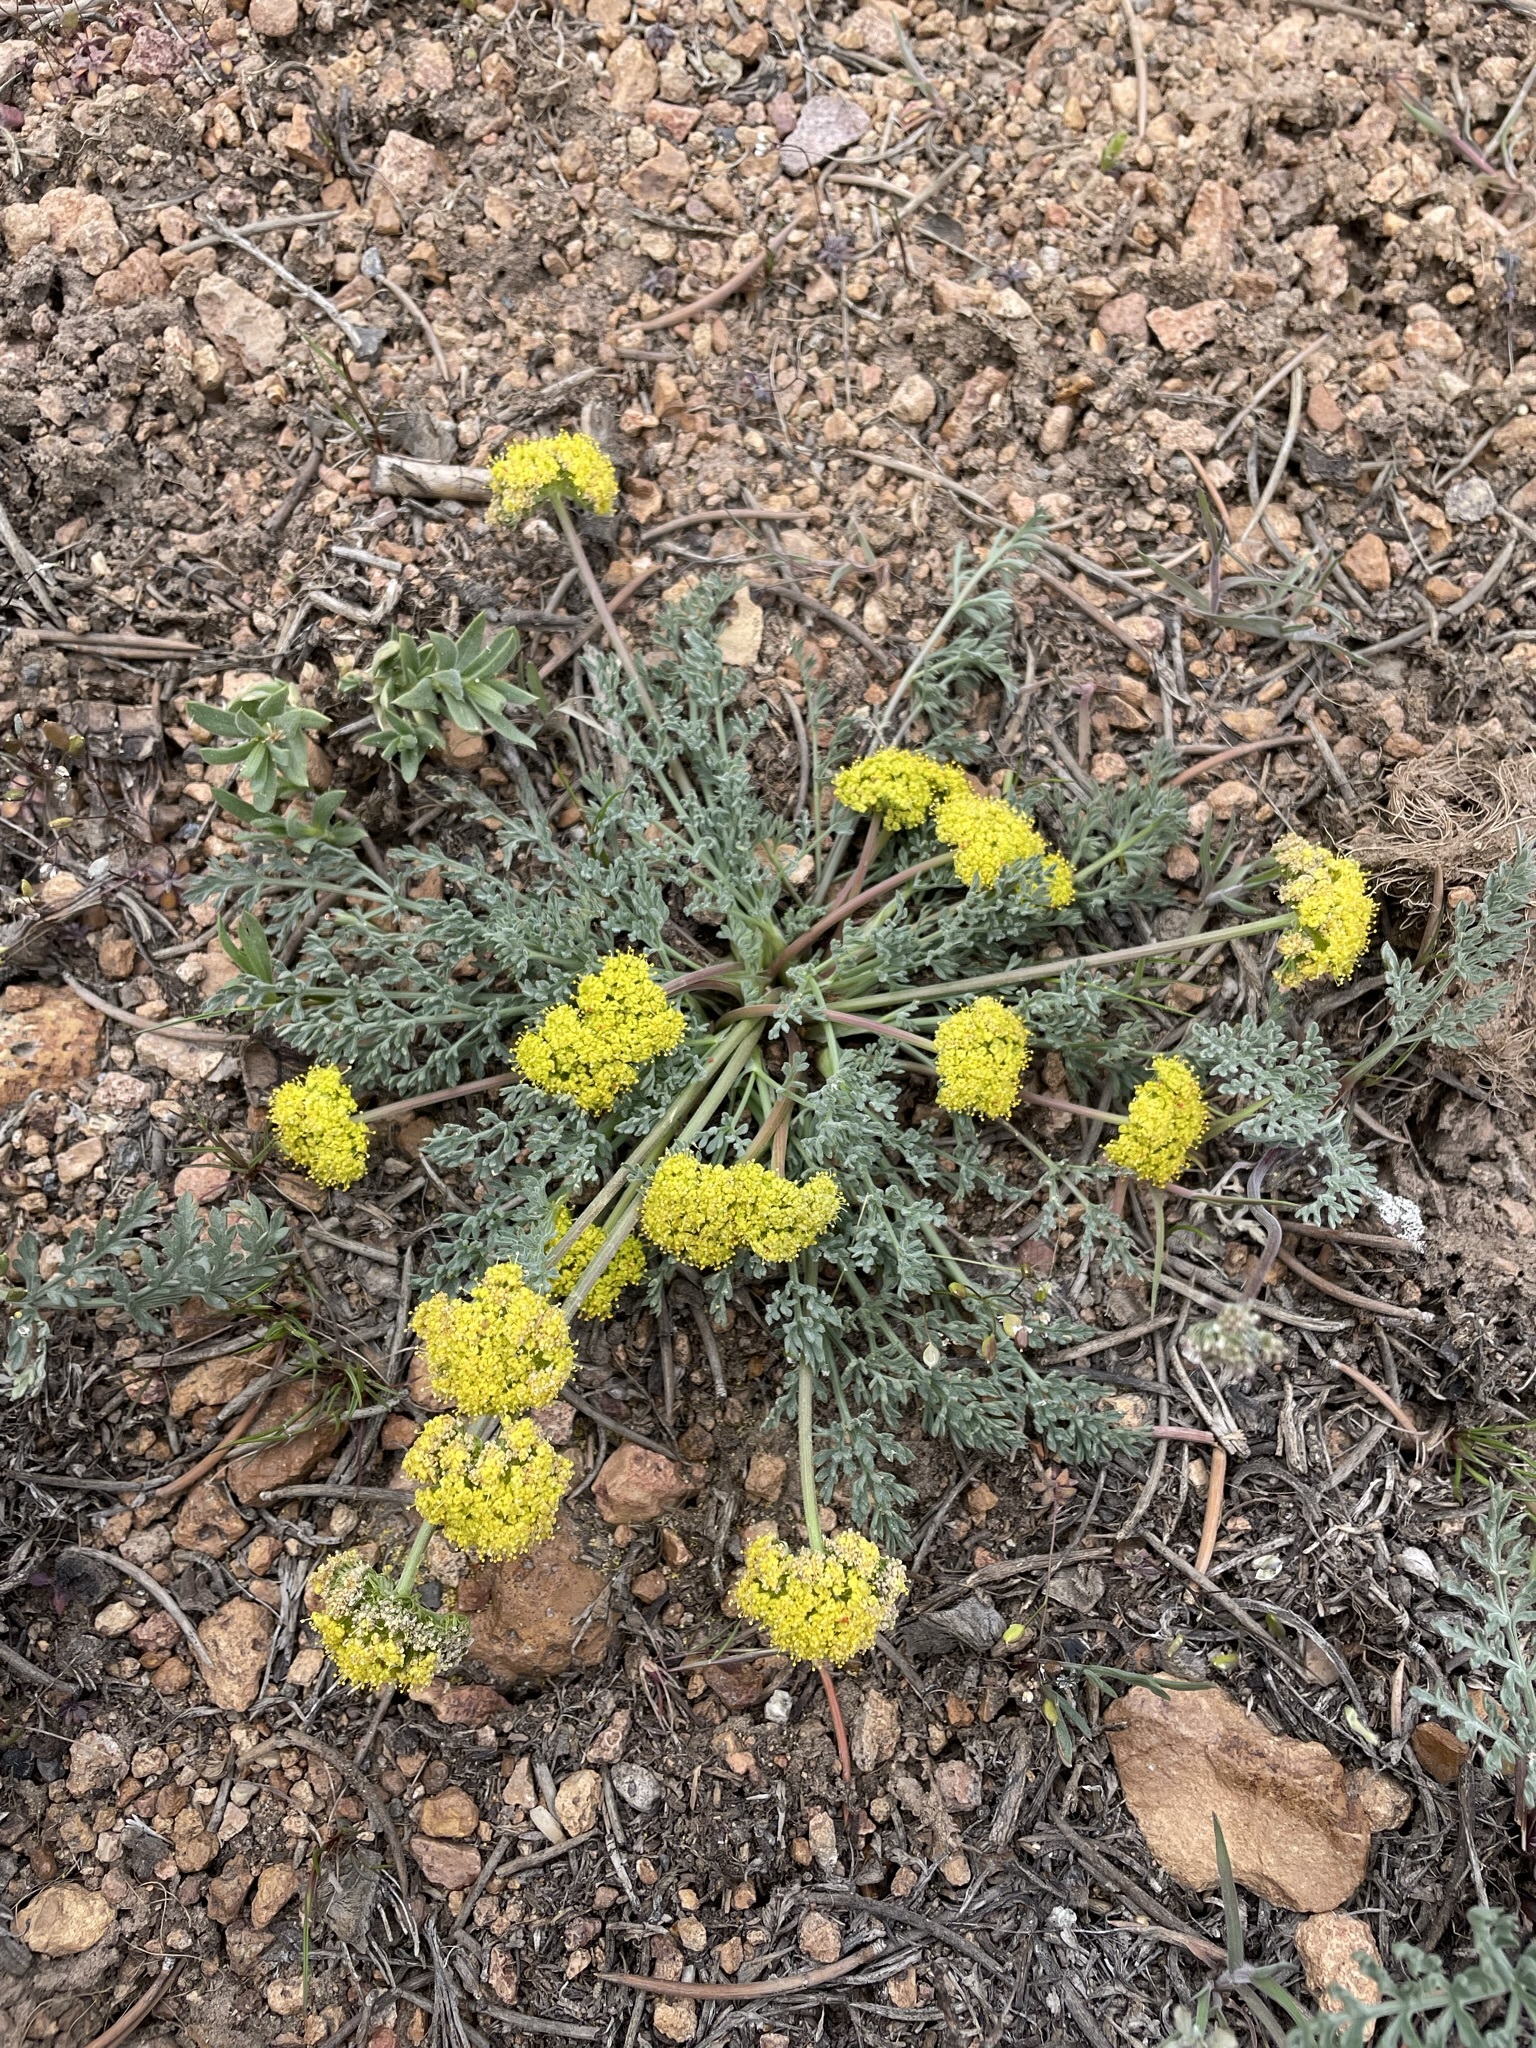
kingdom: Plantae
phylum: Tracheophyta
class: Magnoliopsida
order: Apiales
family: Apiaceae
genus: Lomatium
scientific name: Lomatium austiniae
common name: Plumas lomatium
